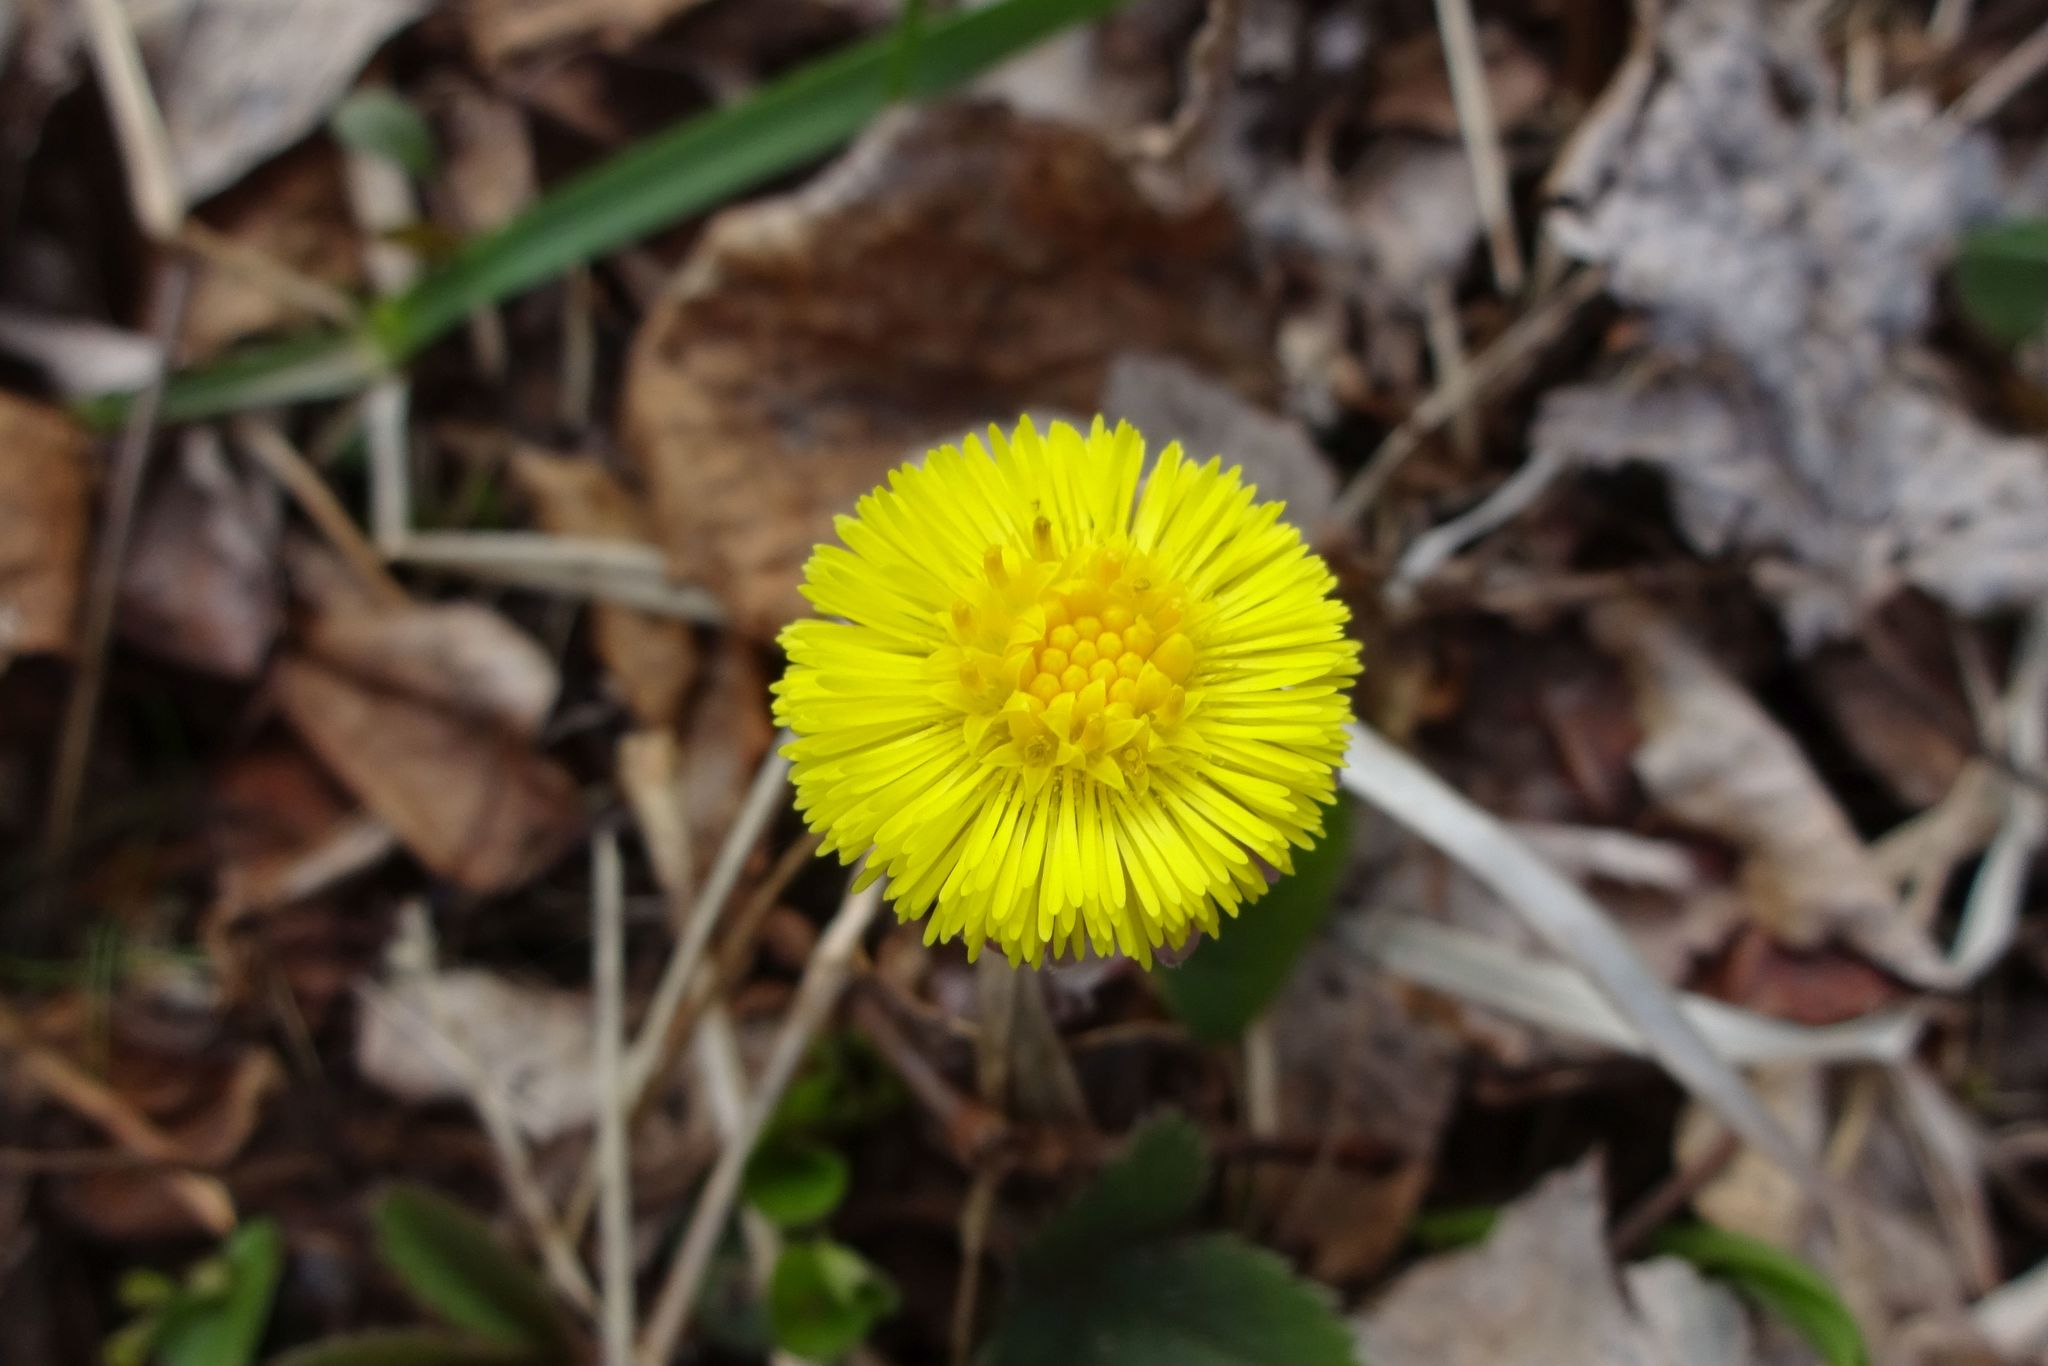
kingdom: Plantae
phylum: Tracheophyta
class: Magnoliopsida
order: Asterales
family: Asteraceae
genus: Tussilago
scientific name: Tussilago farfara
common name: Coltsfoot
